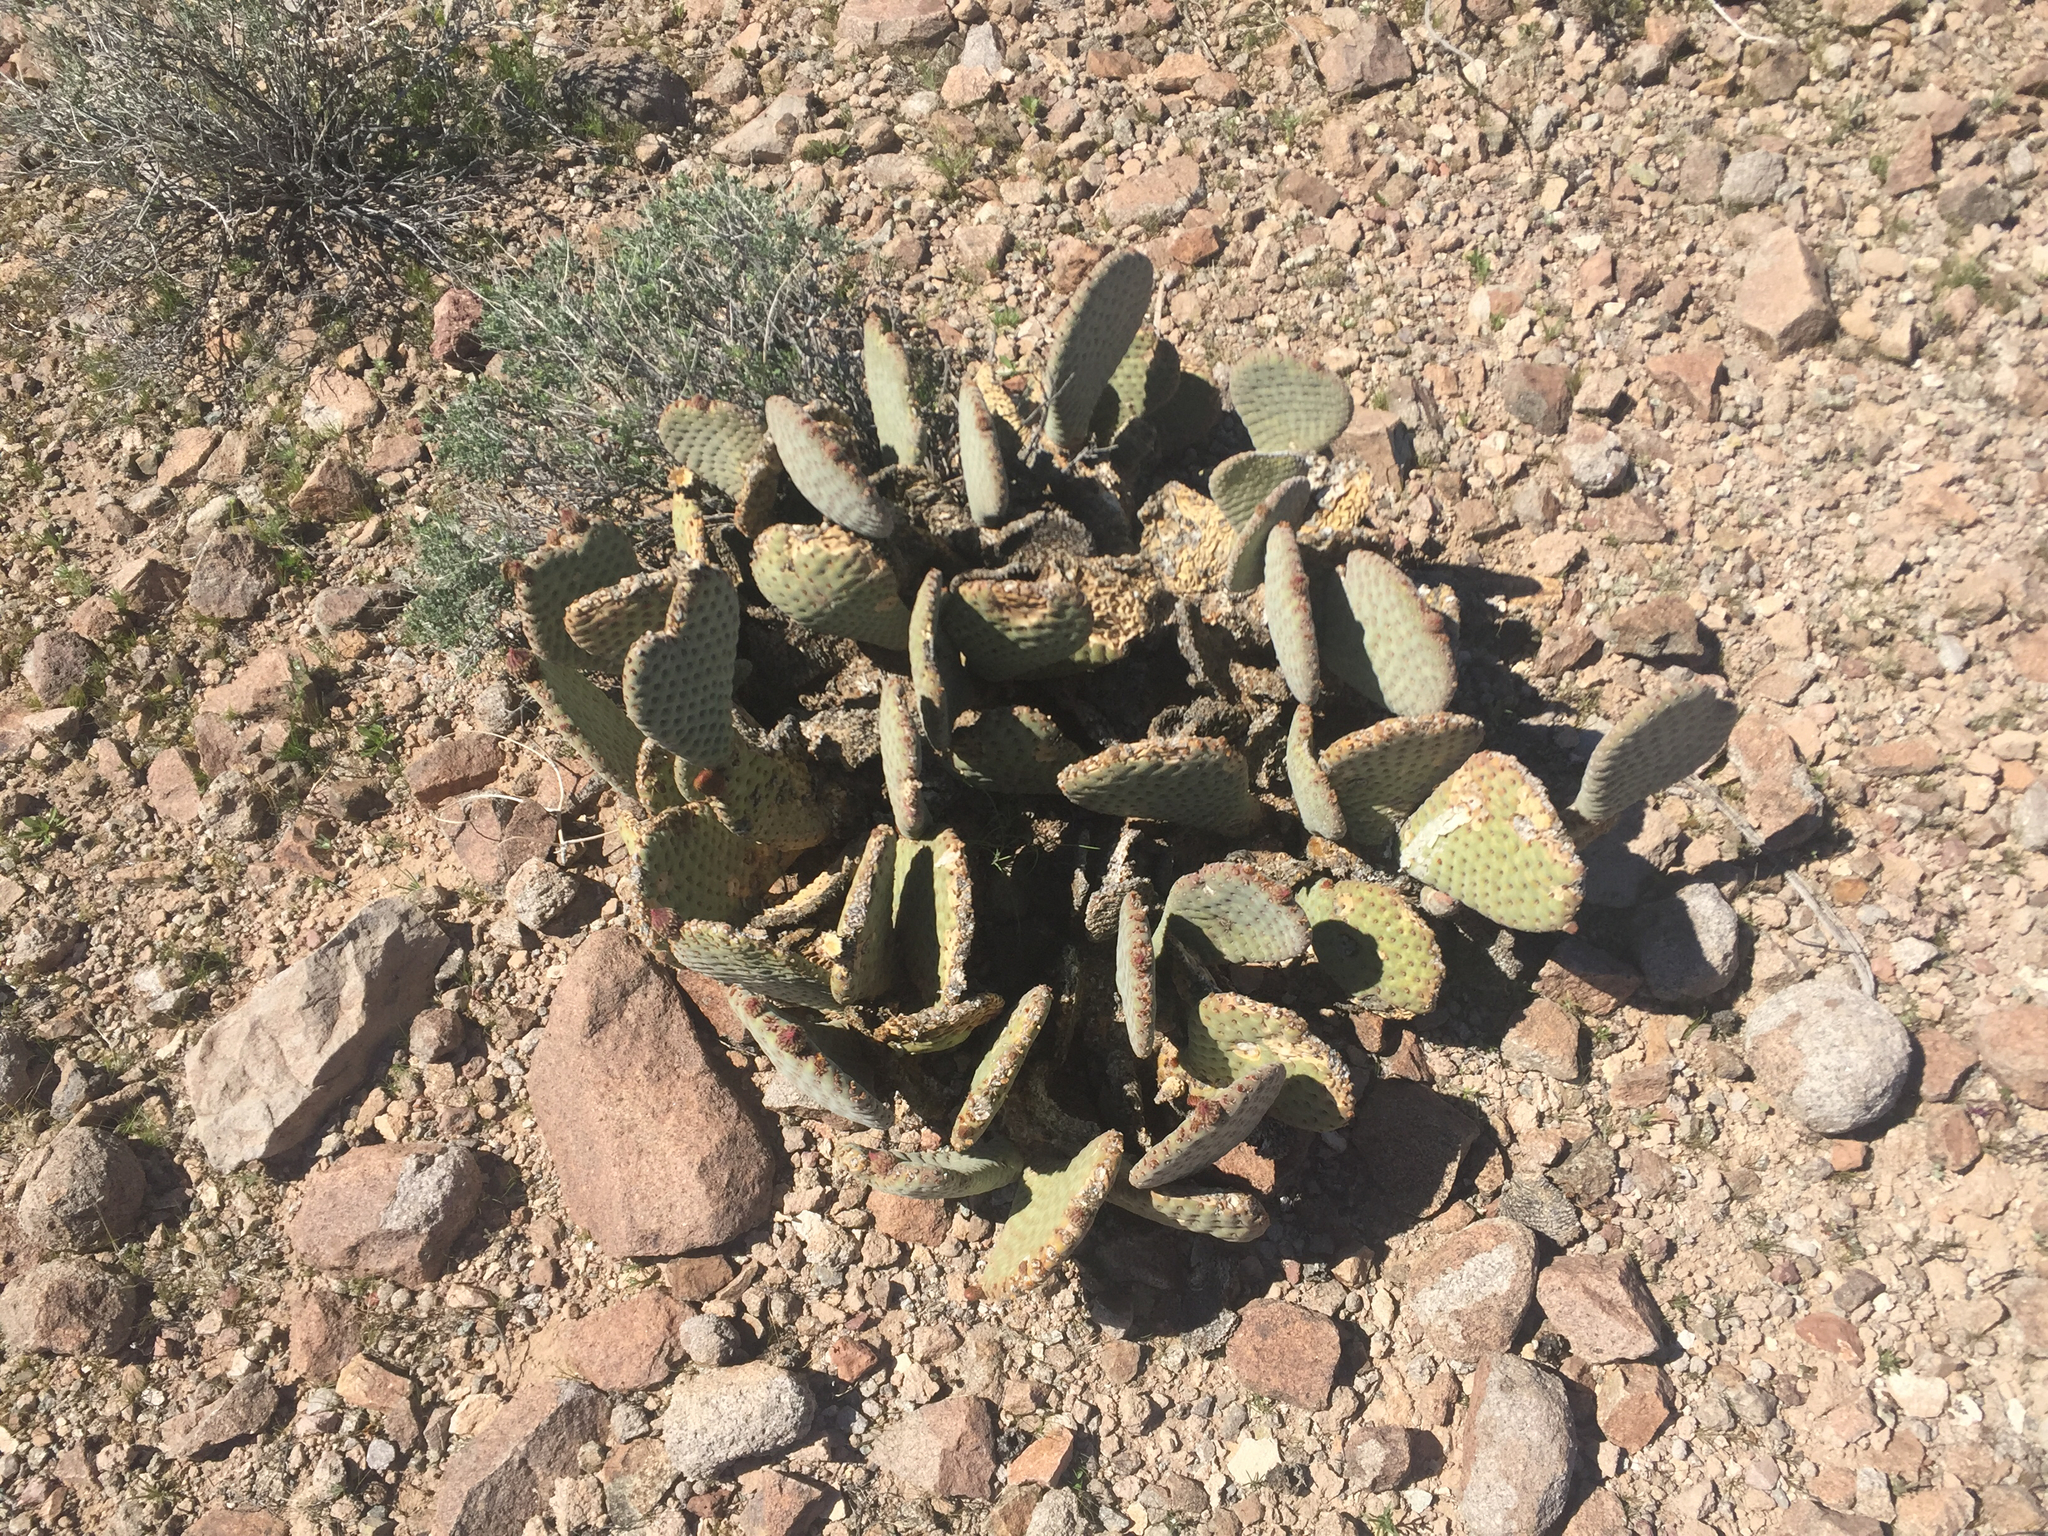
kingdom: Plantae
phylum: Tracheophyta
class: Magnoliopsida
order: Caryophyllales
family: Cactaceae
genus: Opuntia
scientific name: Opuntia basilaris
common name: Beavertail prickly-pear
